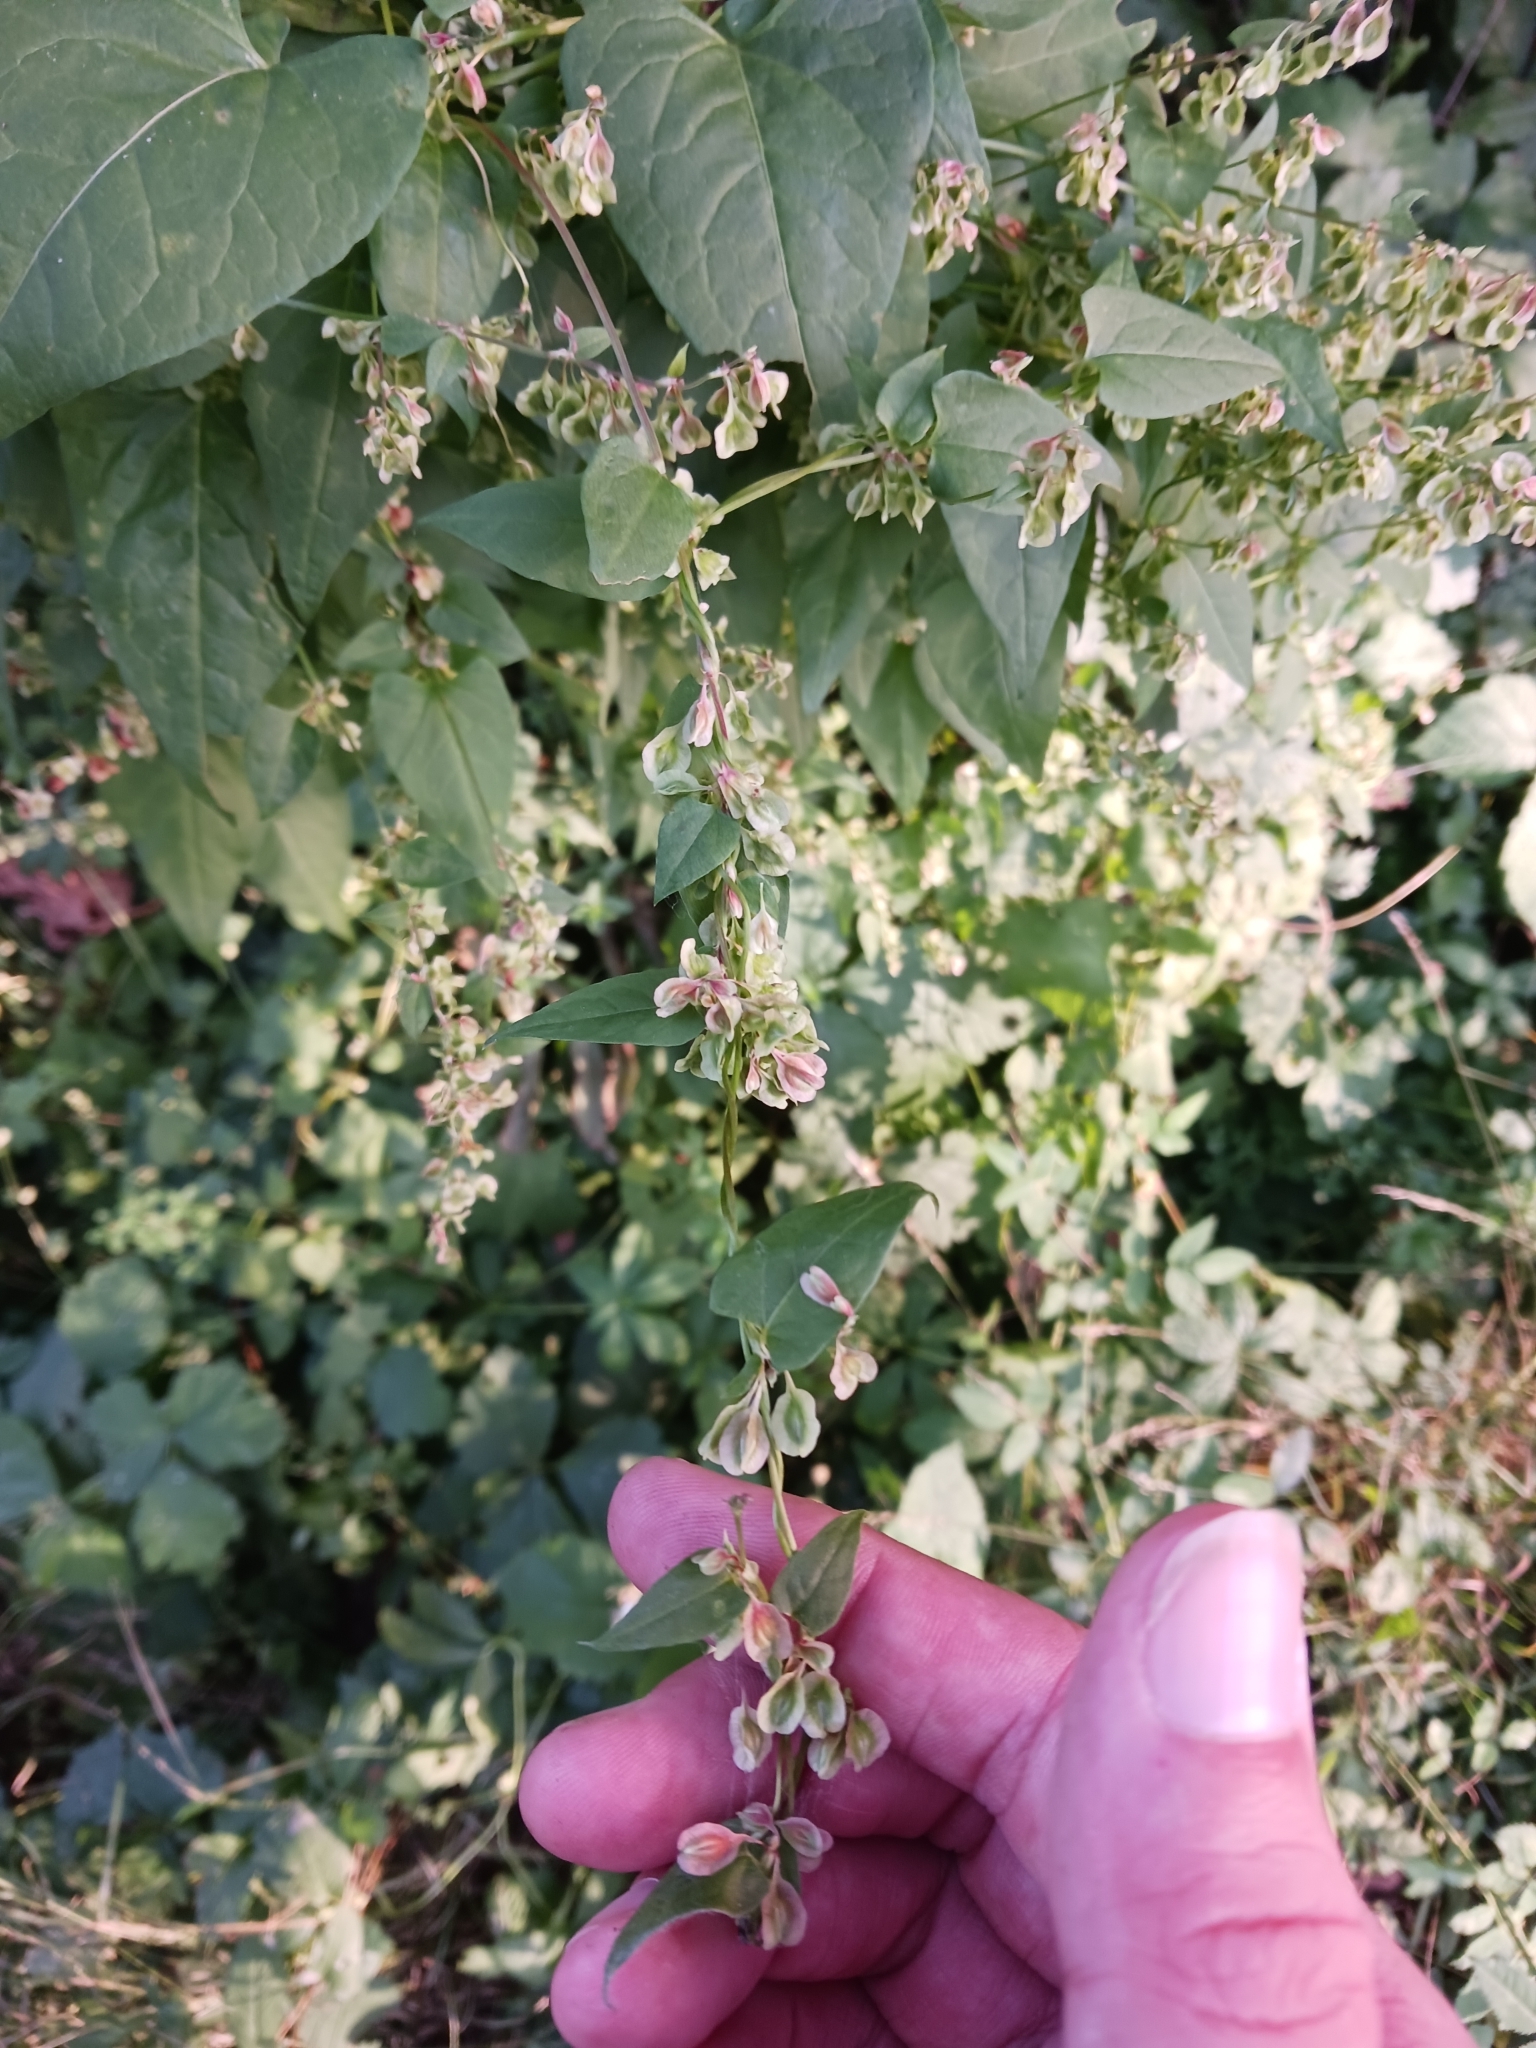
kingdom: Plantae
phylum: Tracheophyta
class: Magnoliopsida
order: Caryophyllales
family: Polygonaceae
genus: Fallopia
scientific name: Fallopia dumetorum
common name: Copse-bindweed
